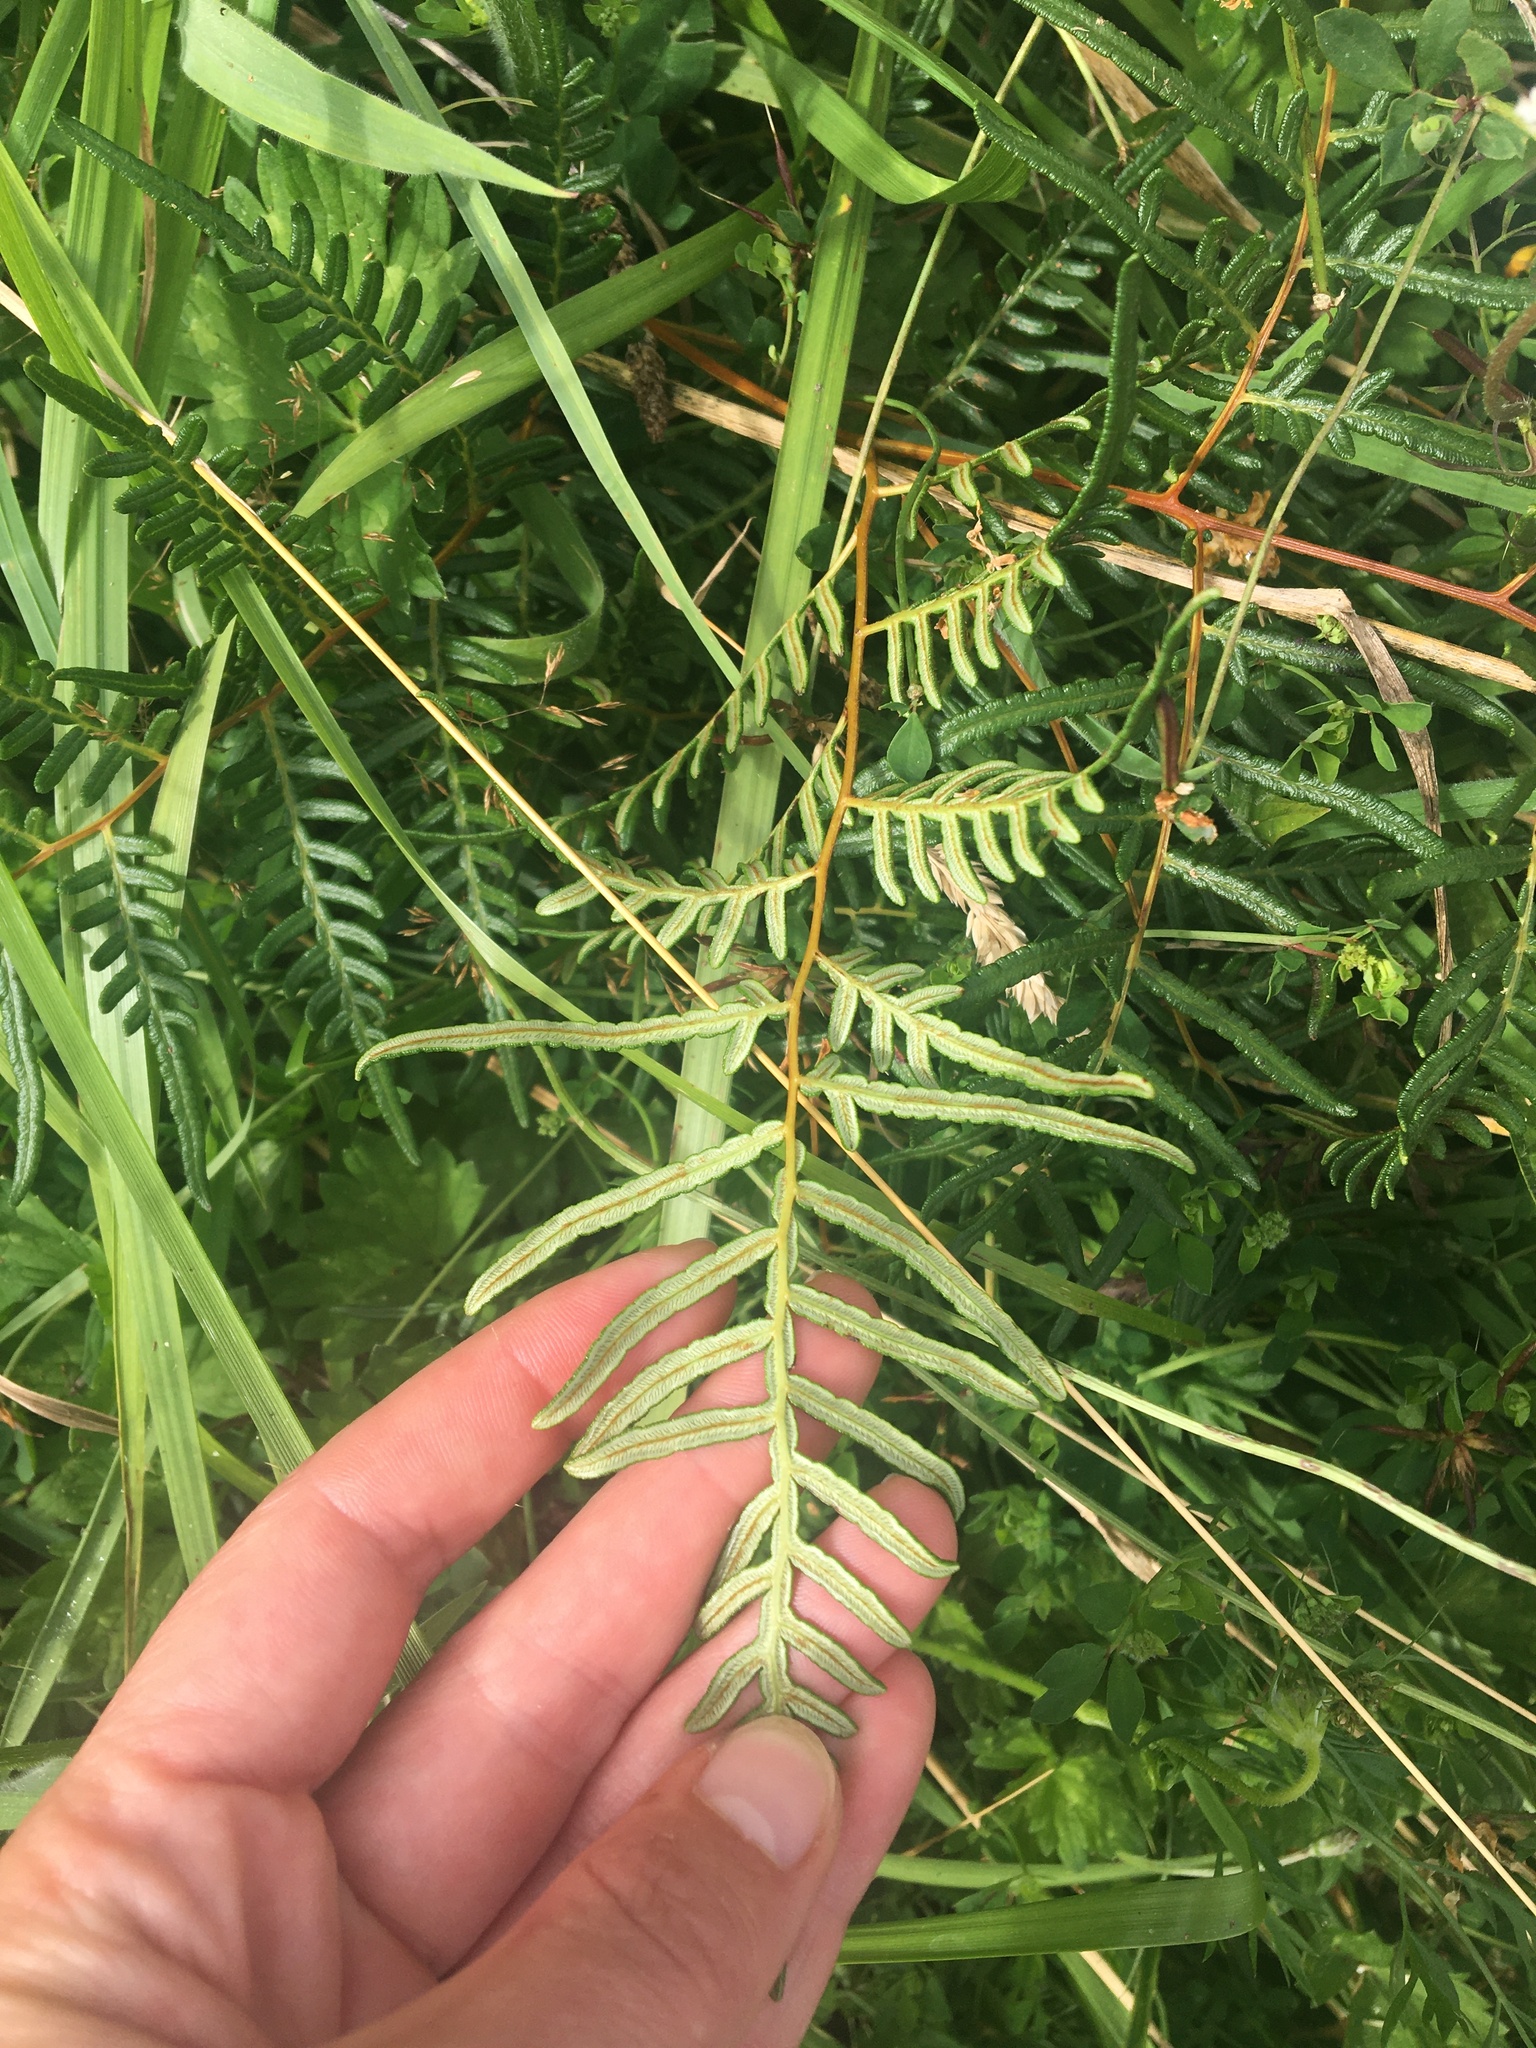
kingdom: Plantae
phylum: Tracheophyta
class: Polypodiopsida
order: Polypodiales
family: Dennstaedtiaceae
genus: Pteridium
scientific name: Pteridium esculentum
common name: Bracken fern
